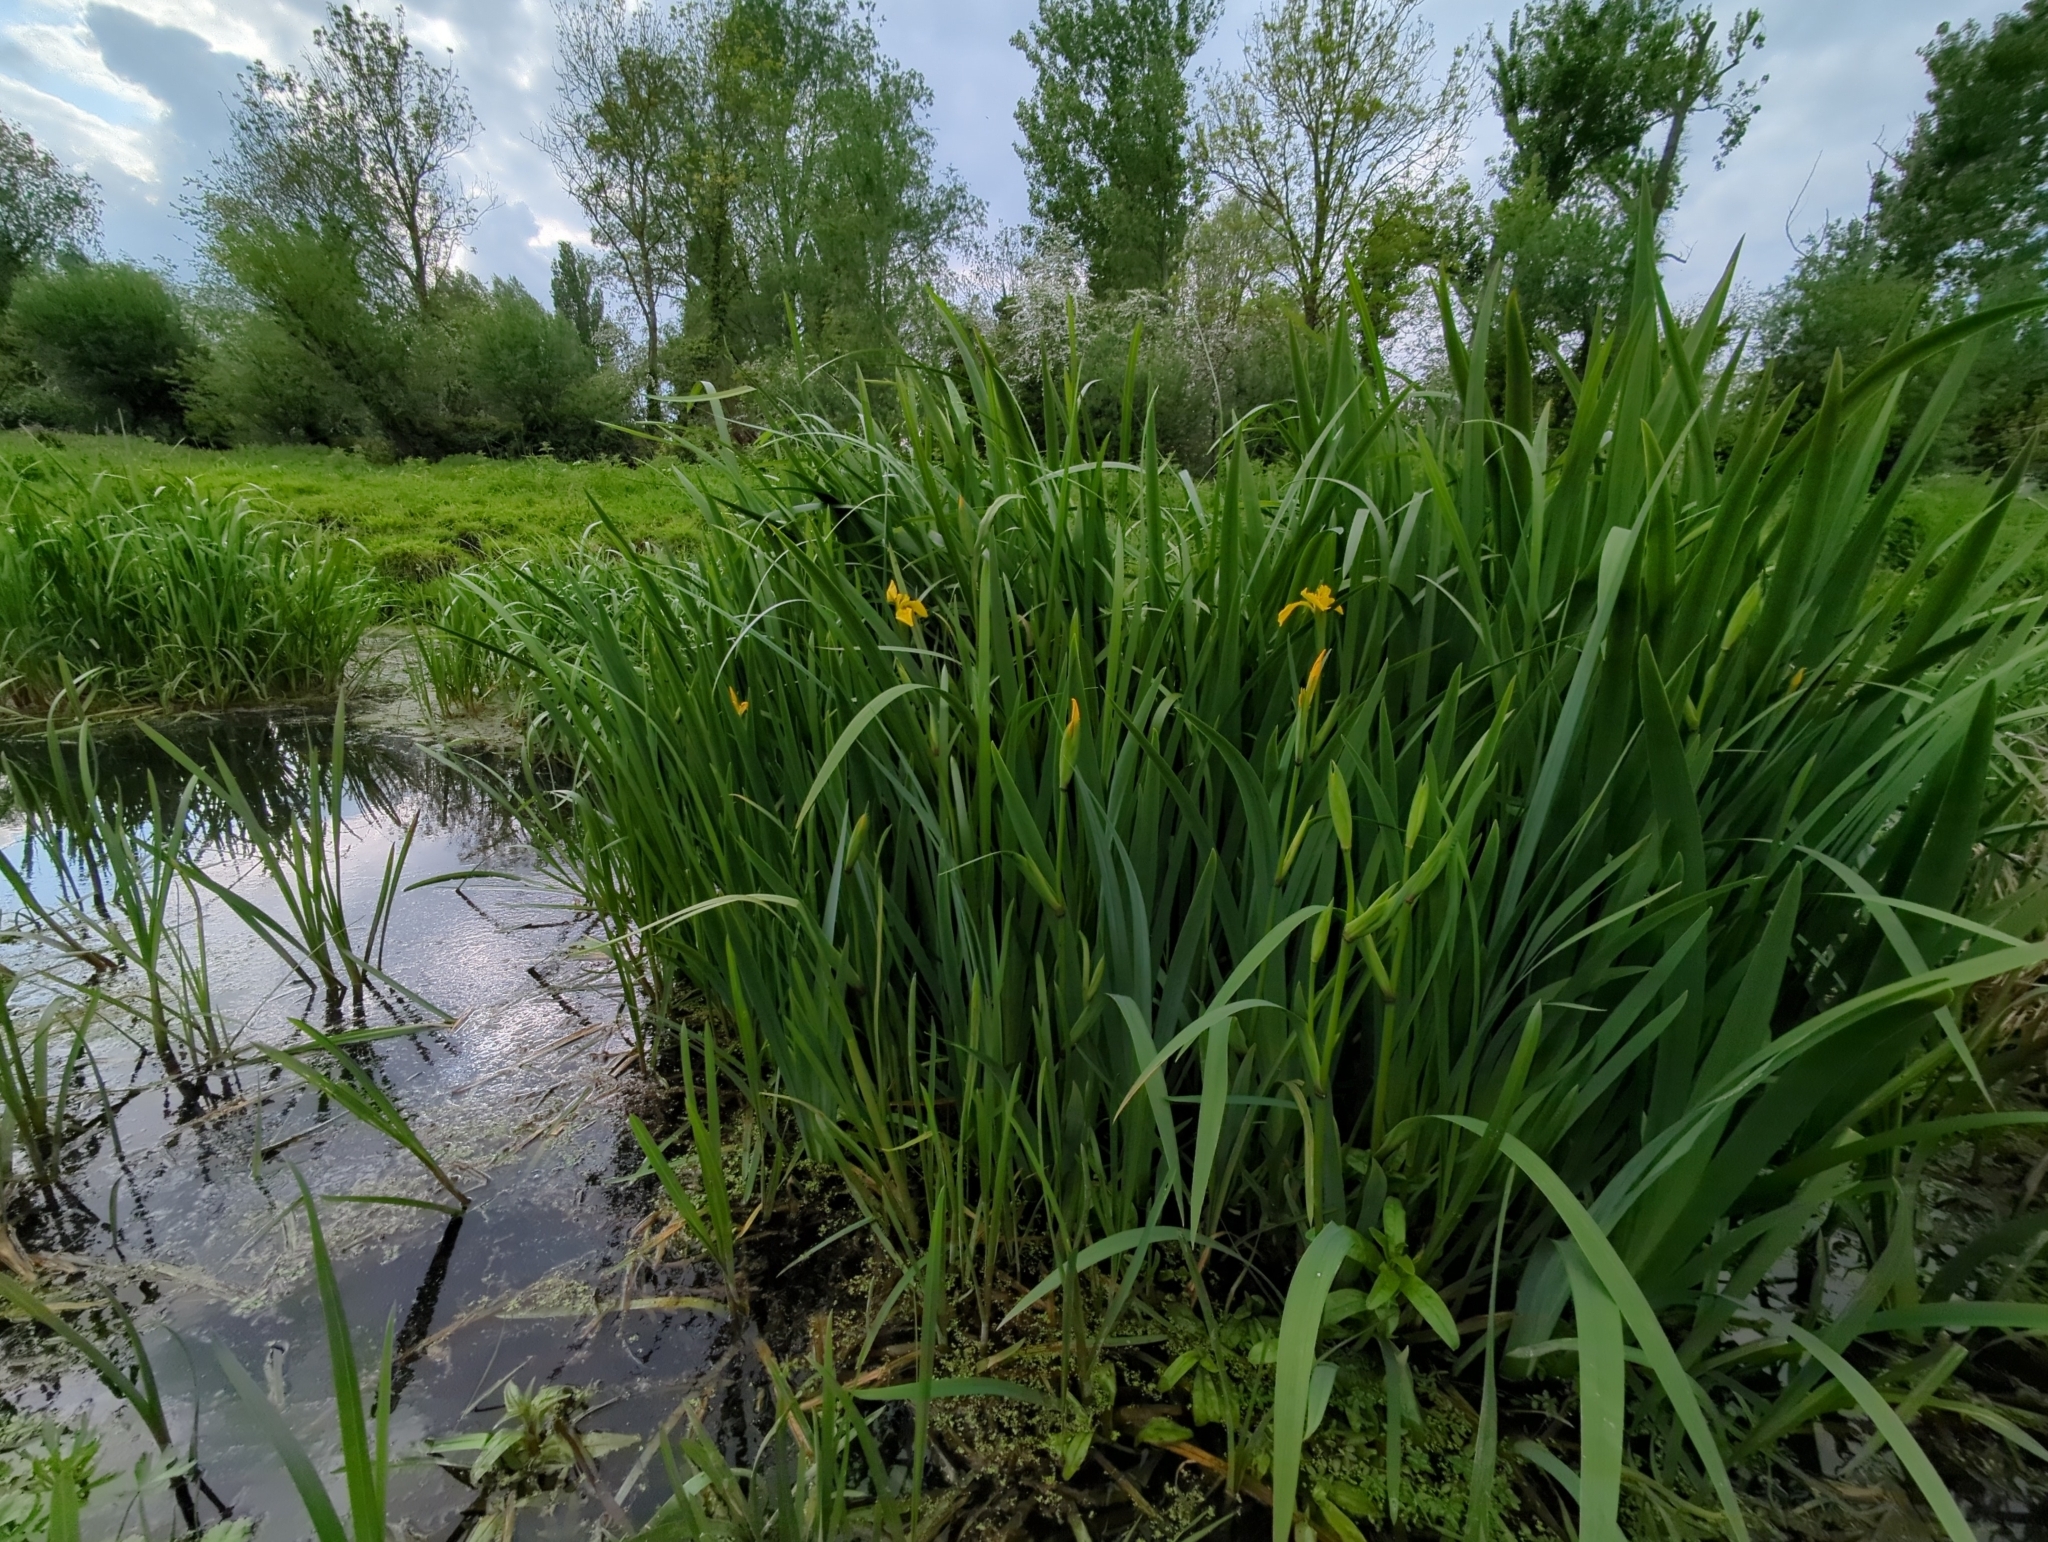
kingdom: Plantae
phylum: Tracheophyta
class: Liliopsida
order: Asparagales
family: Iridaceae
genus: Iris
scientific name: Iris pseudacorus
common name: Yellow flag
